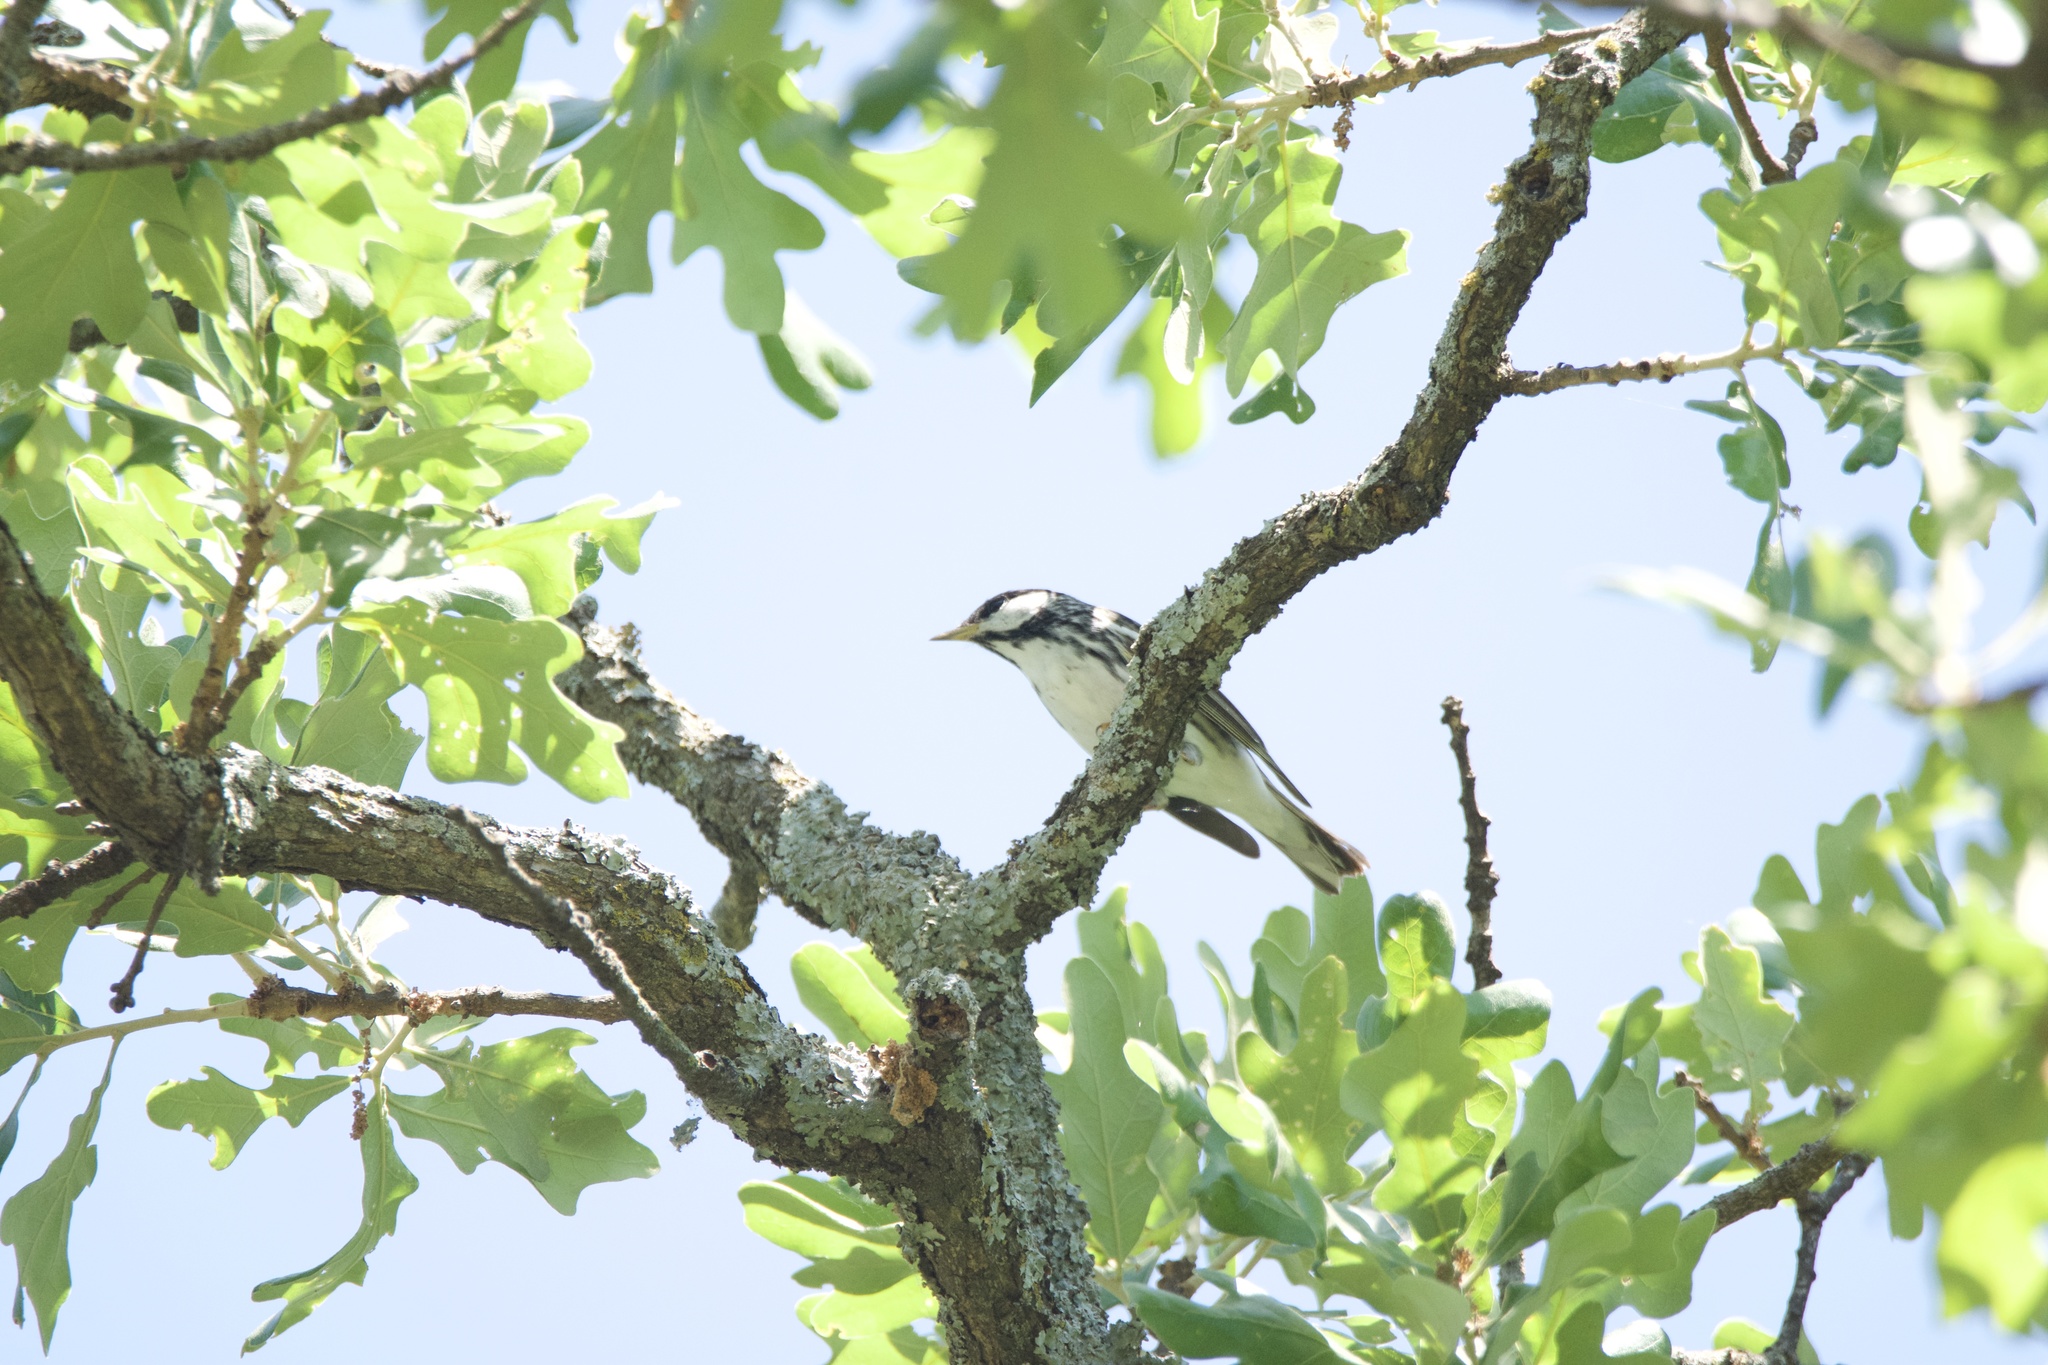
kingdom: Animalia
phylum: Chordata
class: Aves
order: Passeriformes
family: Parulidae
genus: Setophaga
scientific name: Setophaga striata
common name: Blackpoll warbler
